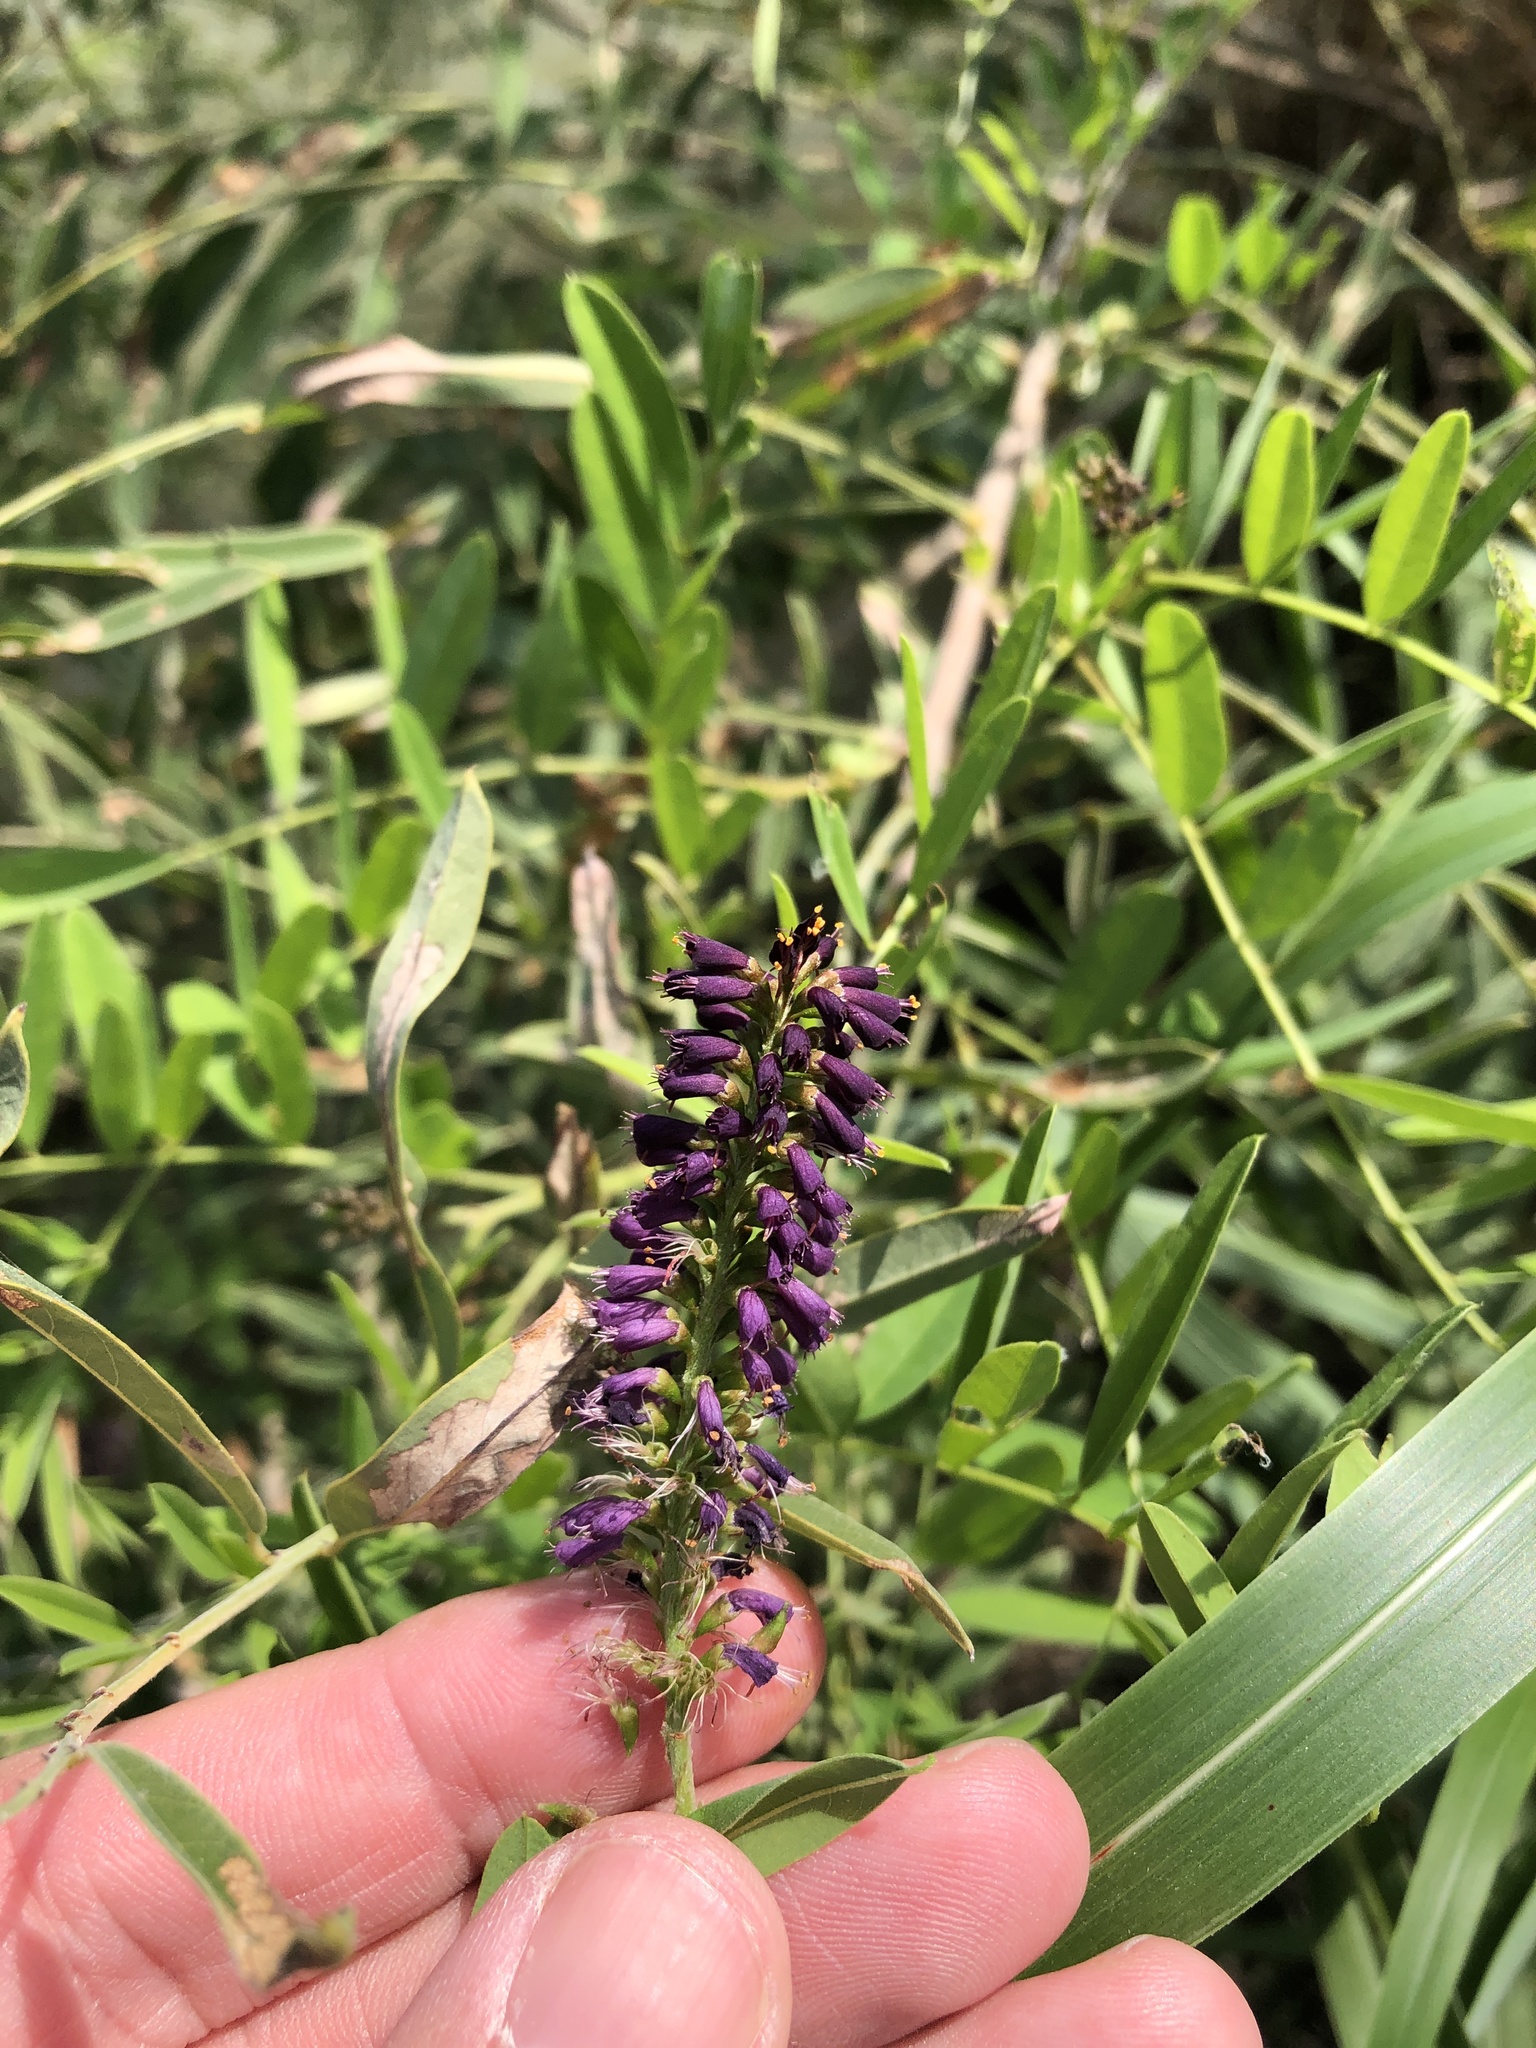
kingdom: Plantae
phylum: Tracheophyta
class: Magnoliopsida
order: Fabales
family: Fabaceae
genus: Amorpha
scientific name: Amorpha fruticosa
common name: False indigo
